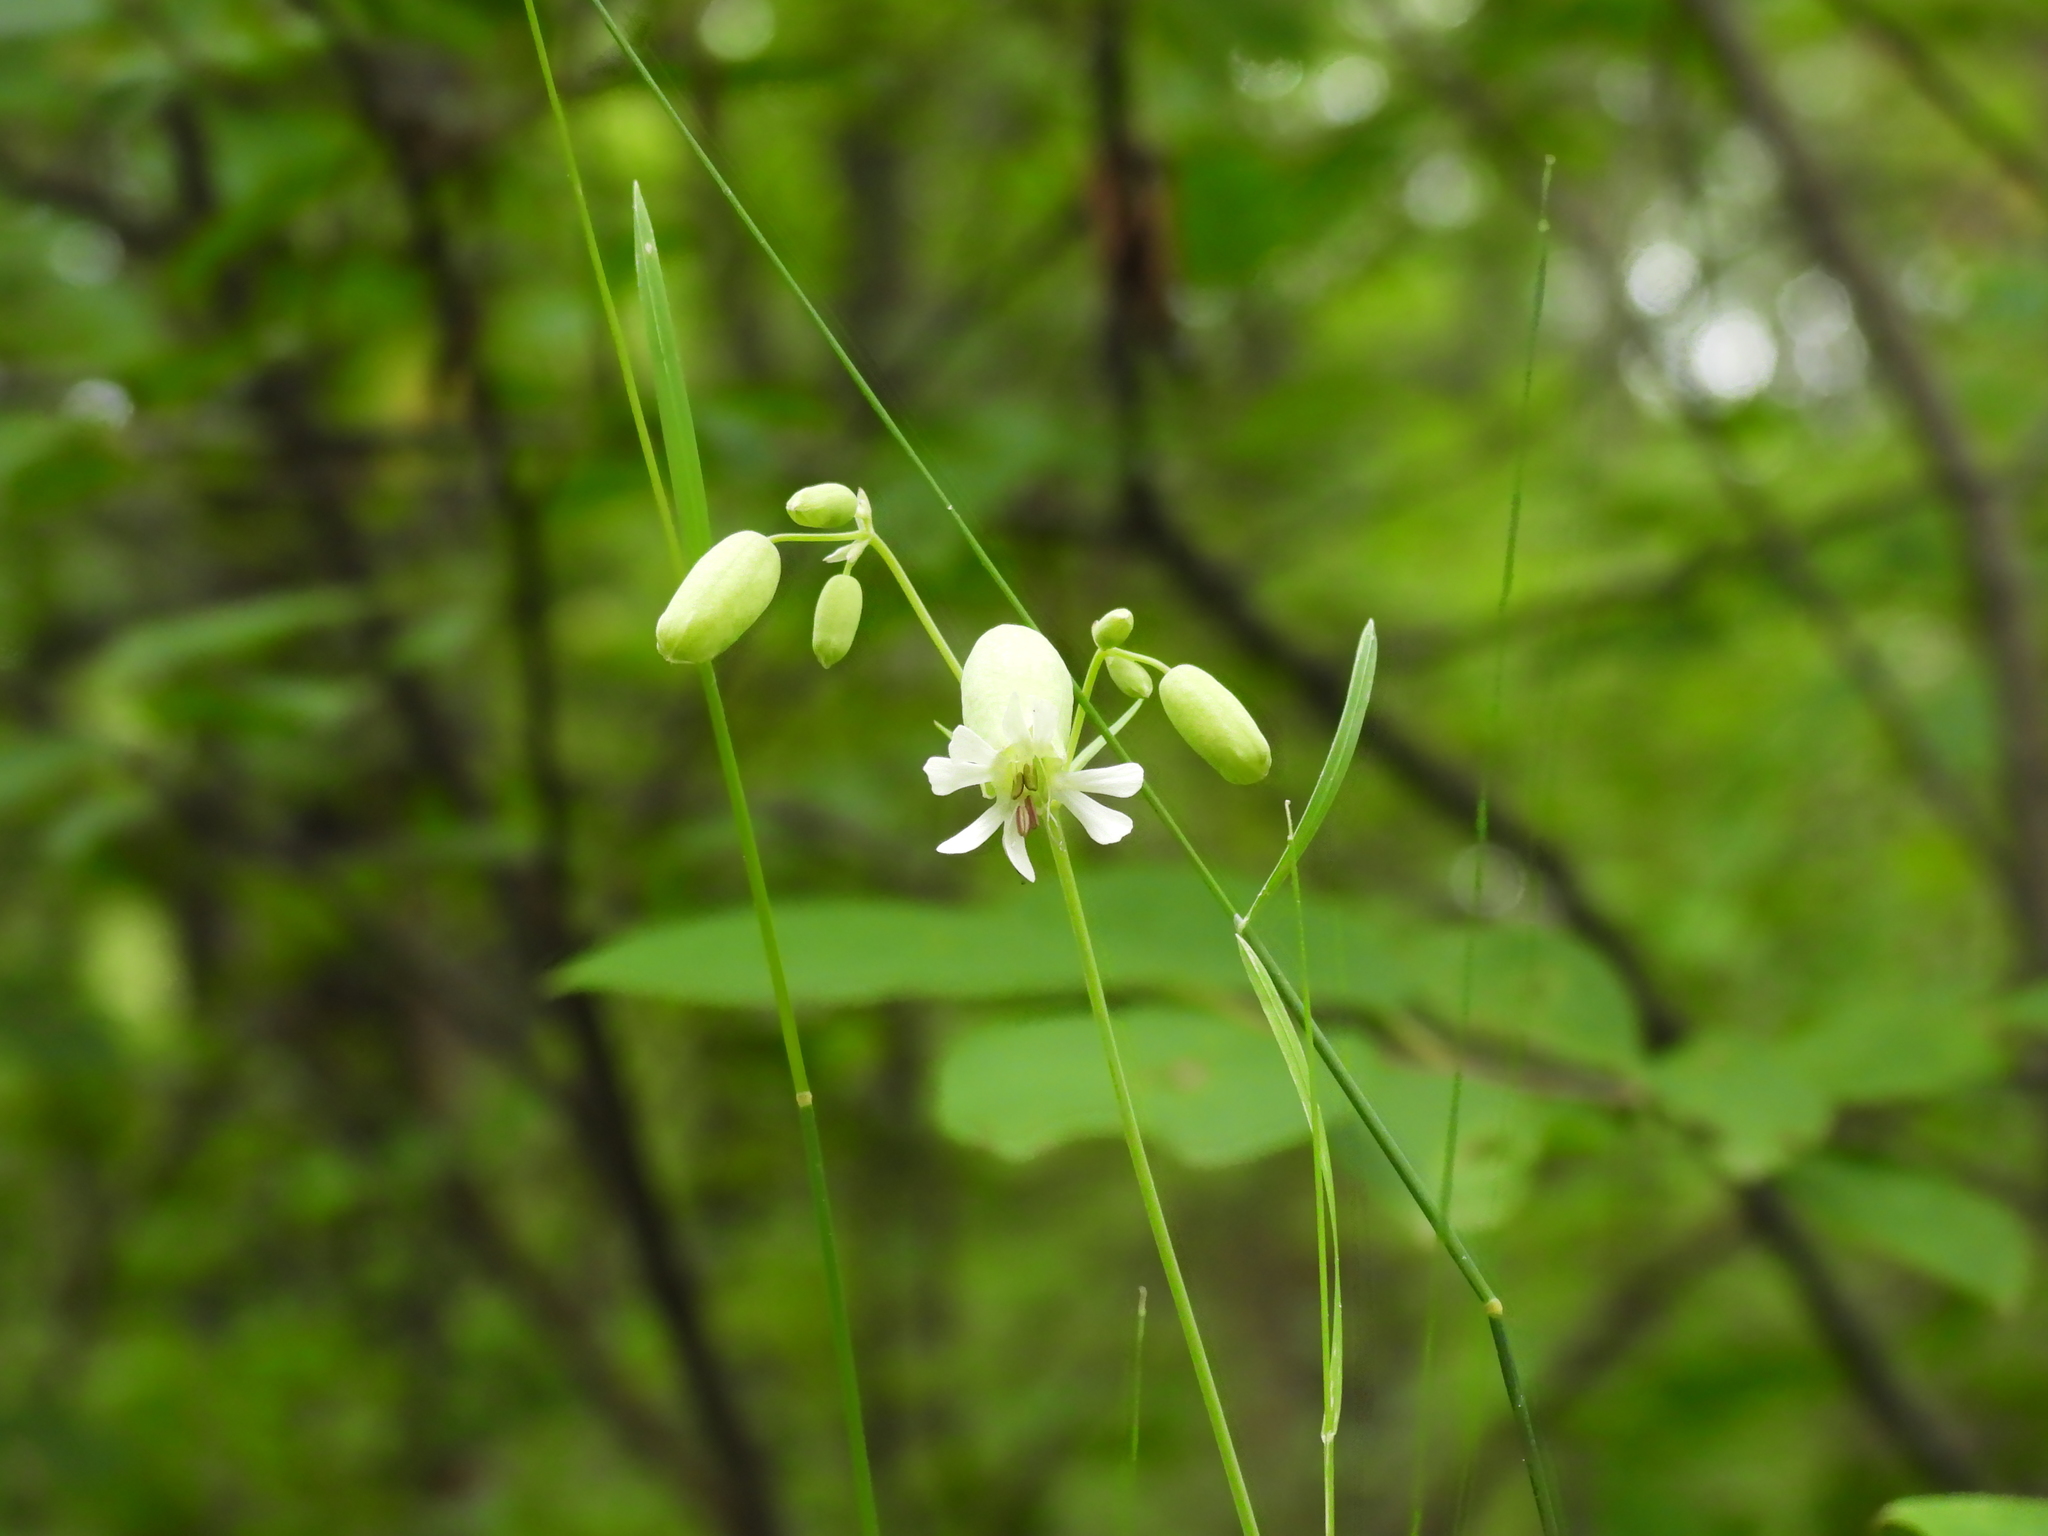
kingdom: Plantae
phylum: Tracheophyta
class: Magnoliopsida
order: Caryophyllales
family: Caryophyllaceae
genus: Silene
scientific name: Silene vulgaris
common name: Bladder campion
